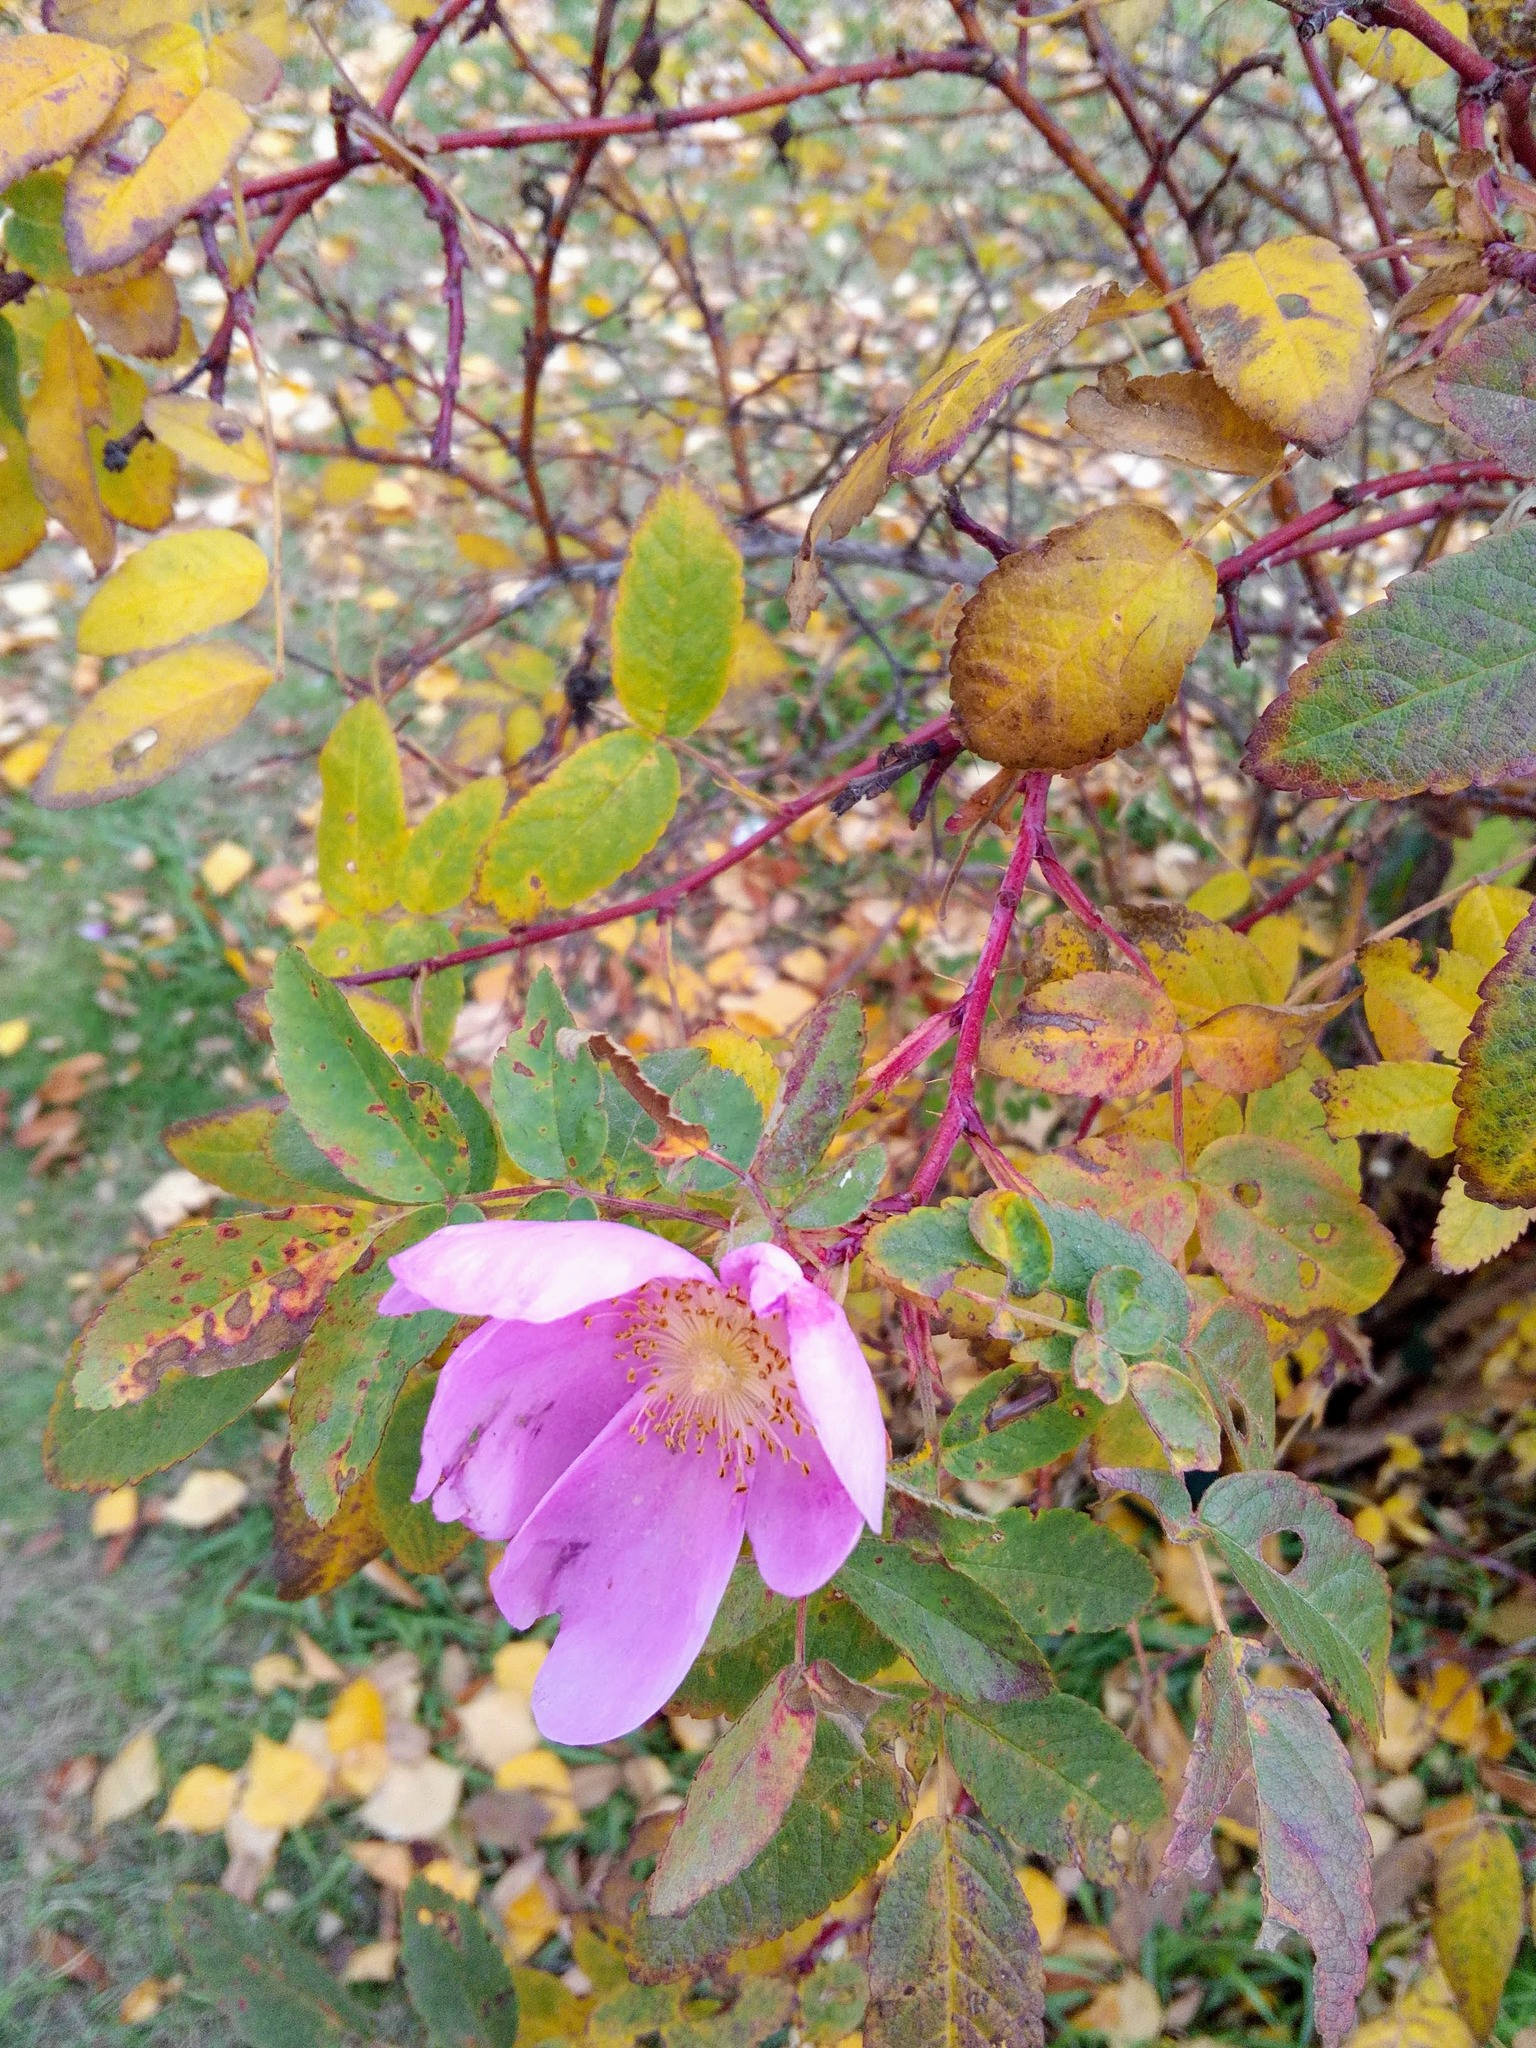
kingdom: Plantae
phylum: Tracheophyta
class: Magnoliopsida
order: Rosales
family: Rosaceae
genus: Rosa
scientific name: Rosa
